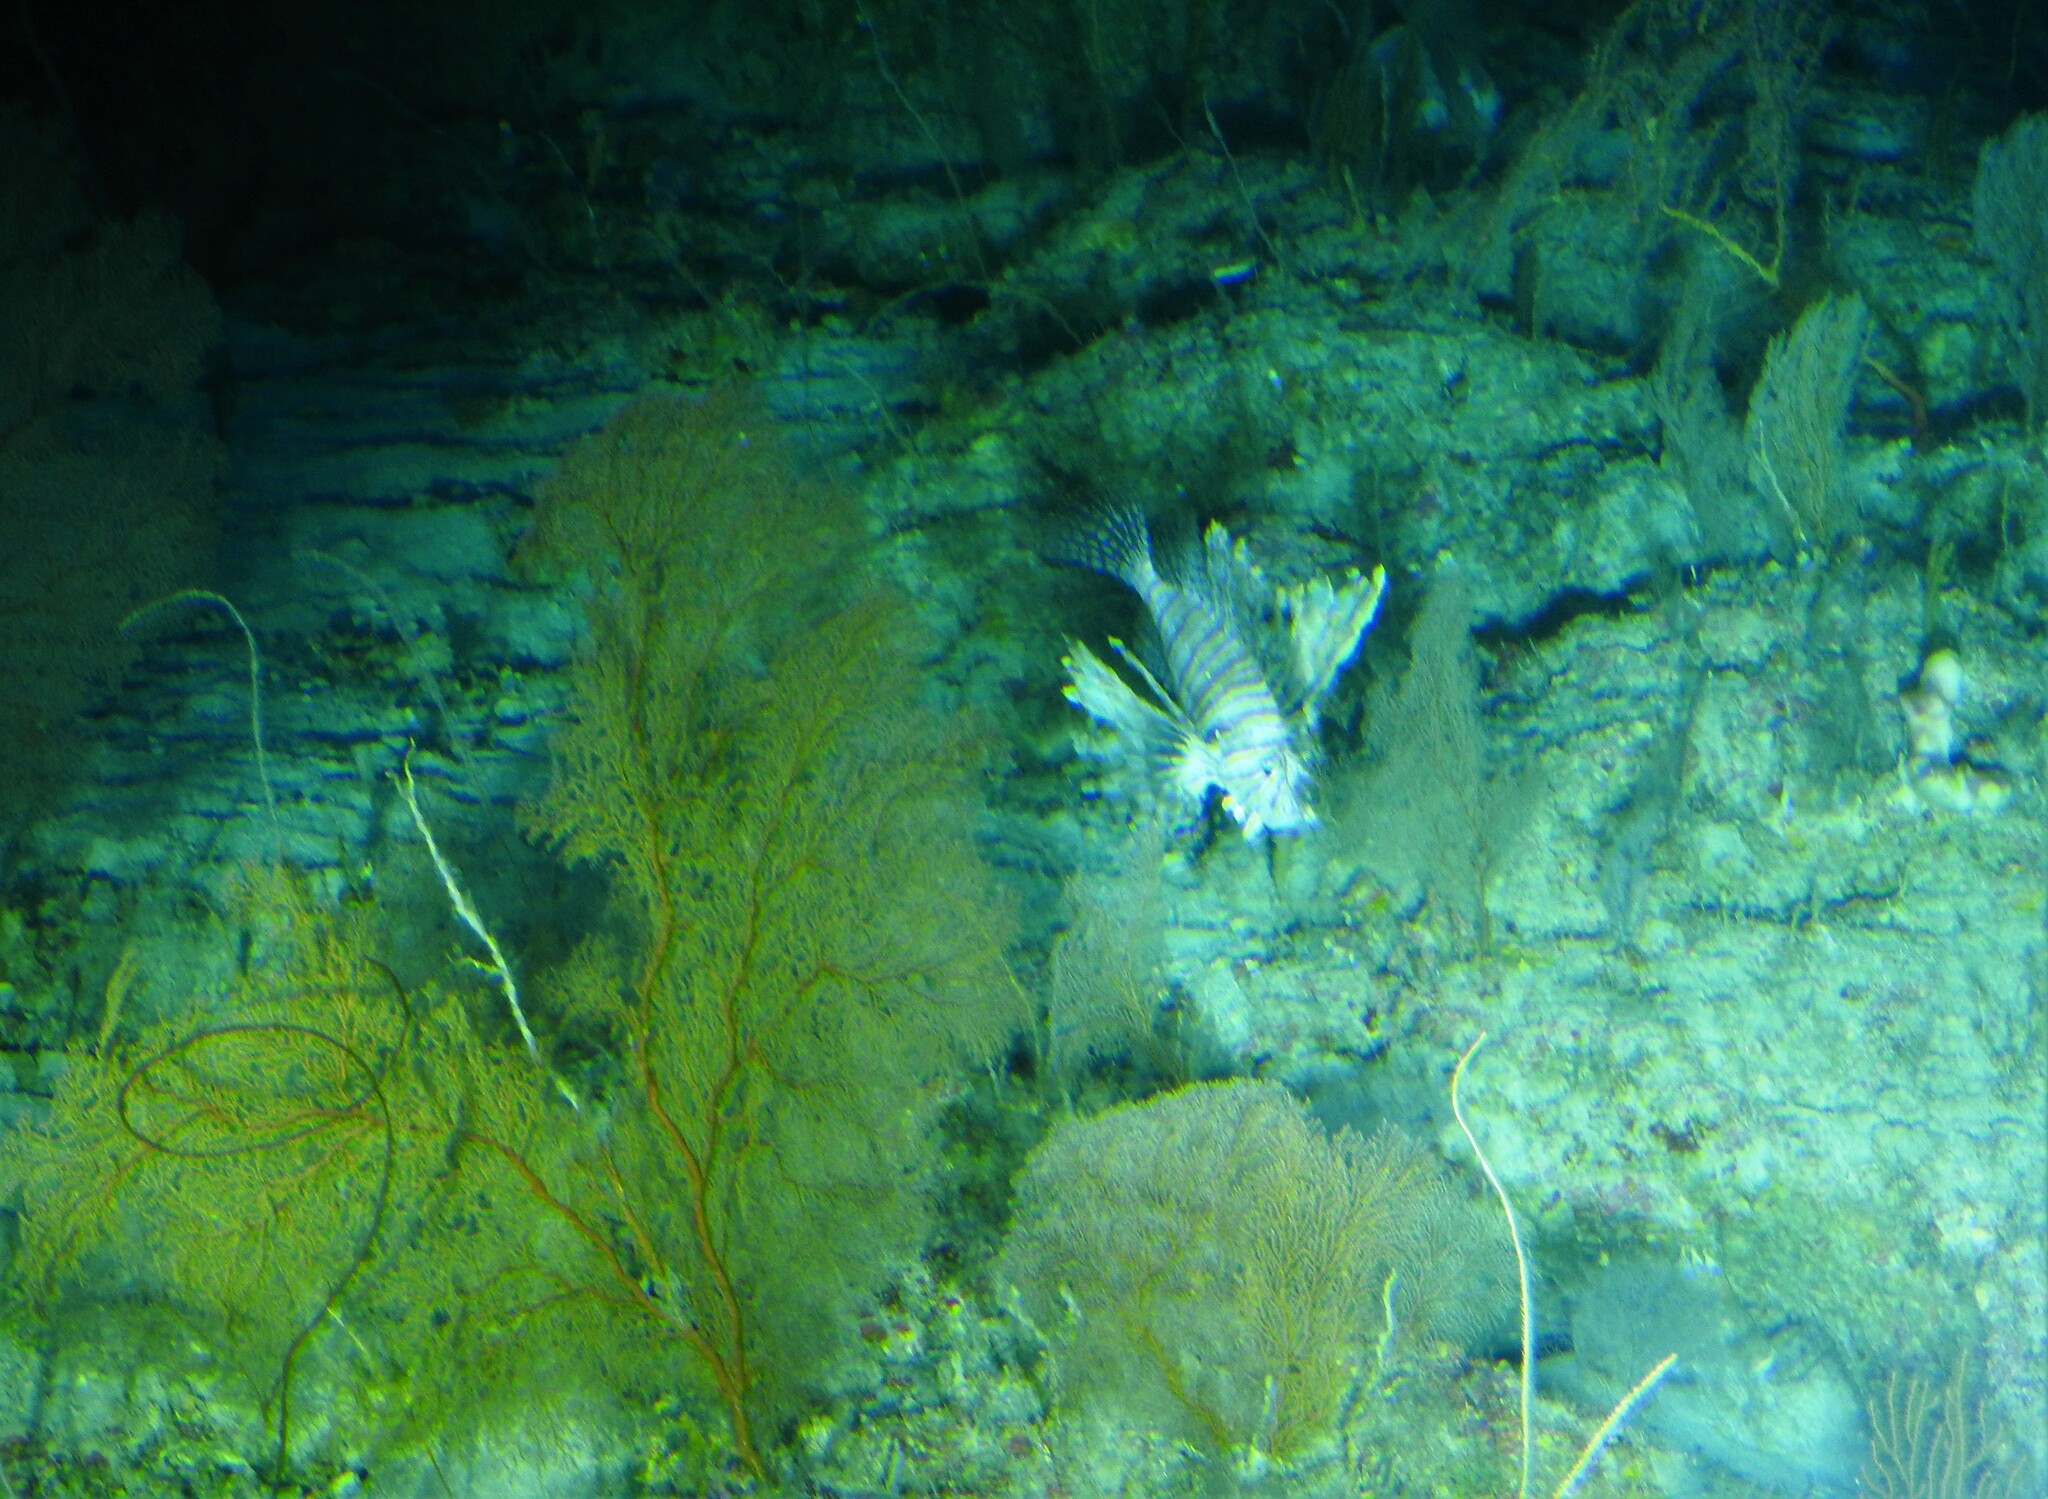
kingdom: Animalia
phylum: Chordata
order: Scorpaeniformes
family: Scorpaenidae
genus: Pterois
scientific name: Pterois volitans
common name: Lionfish
